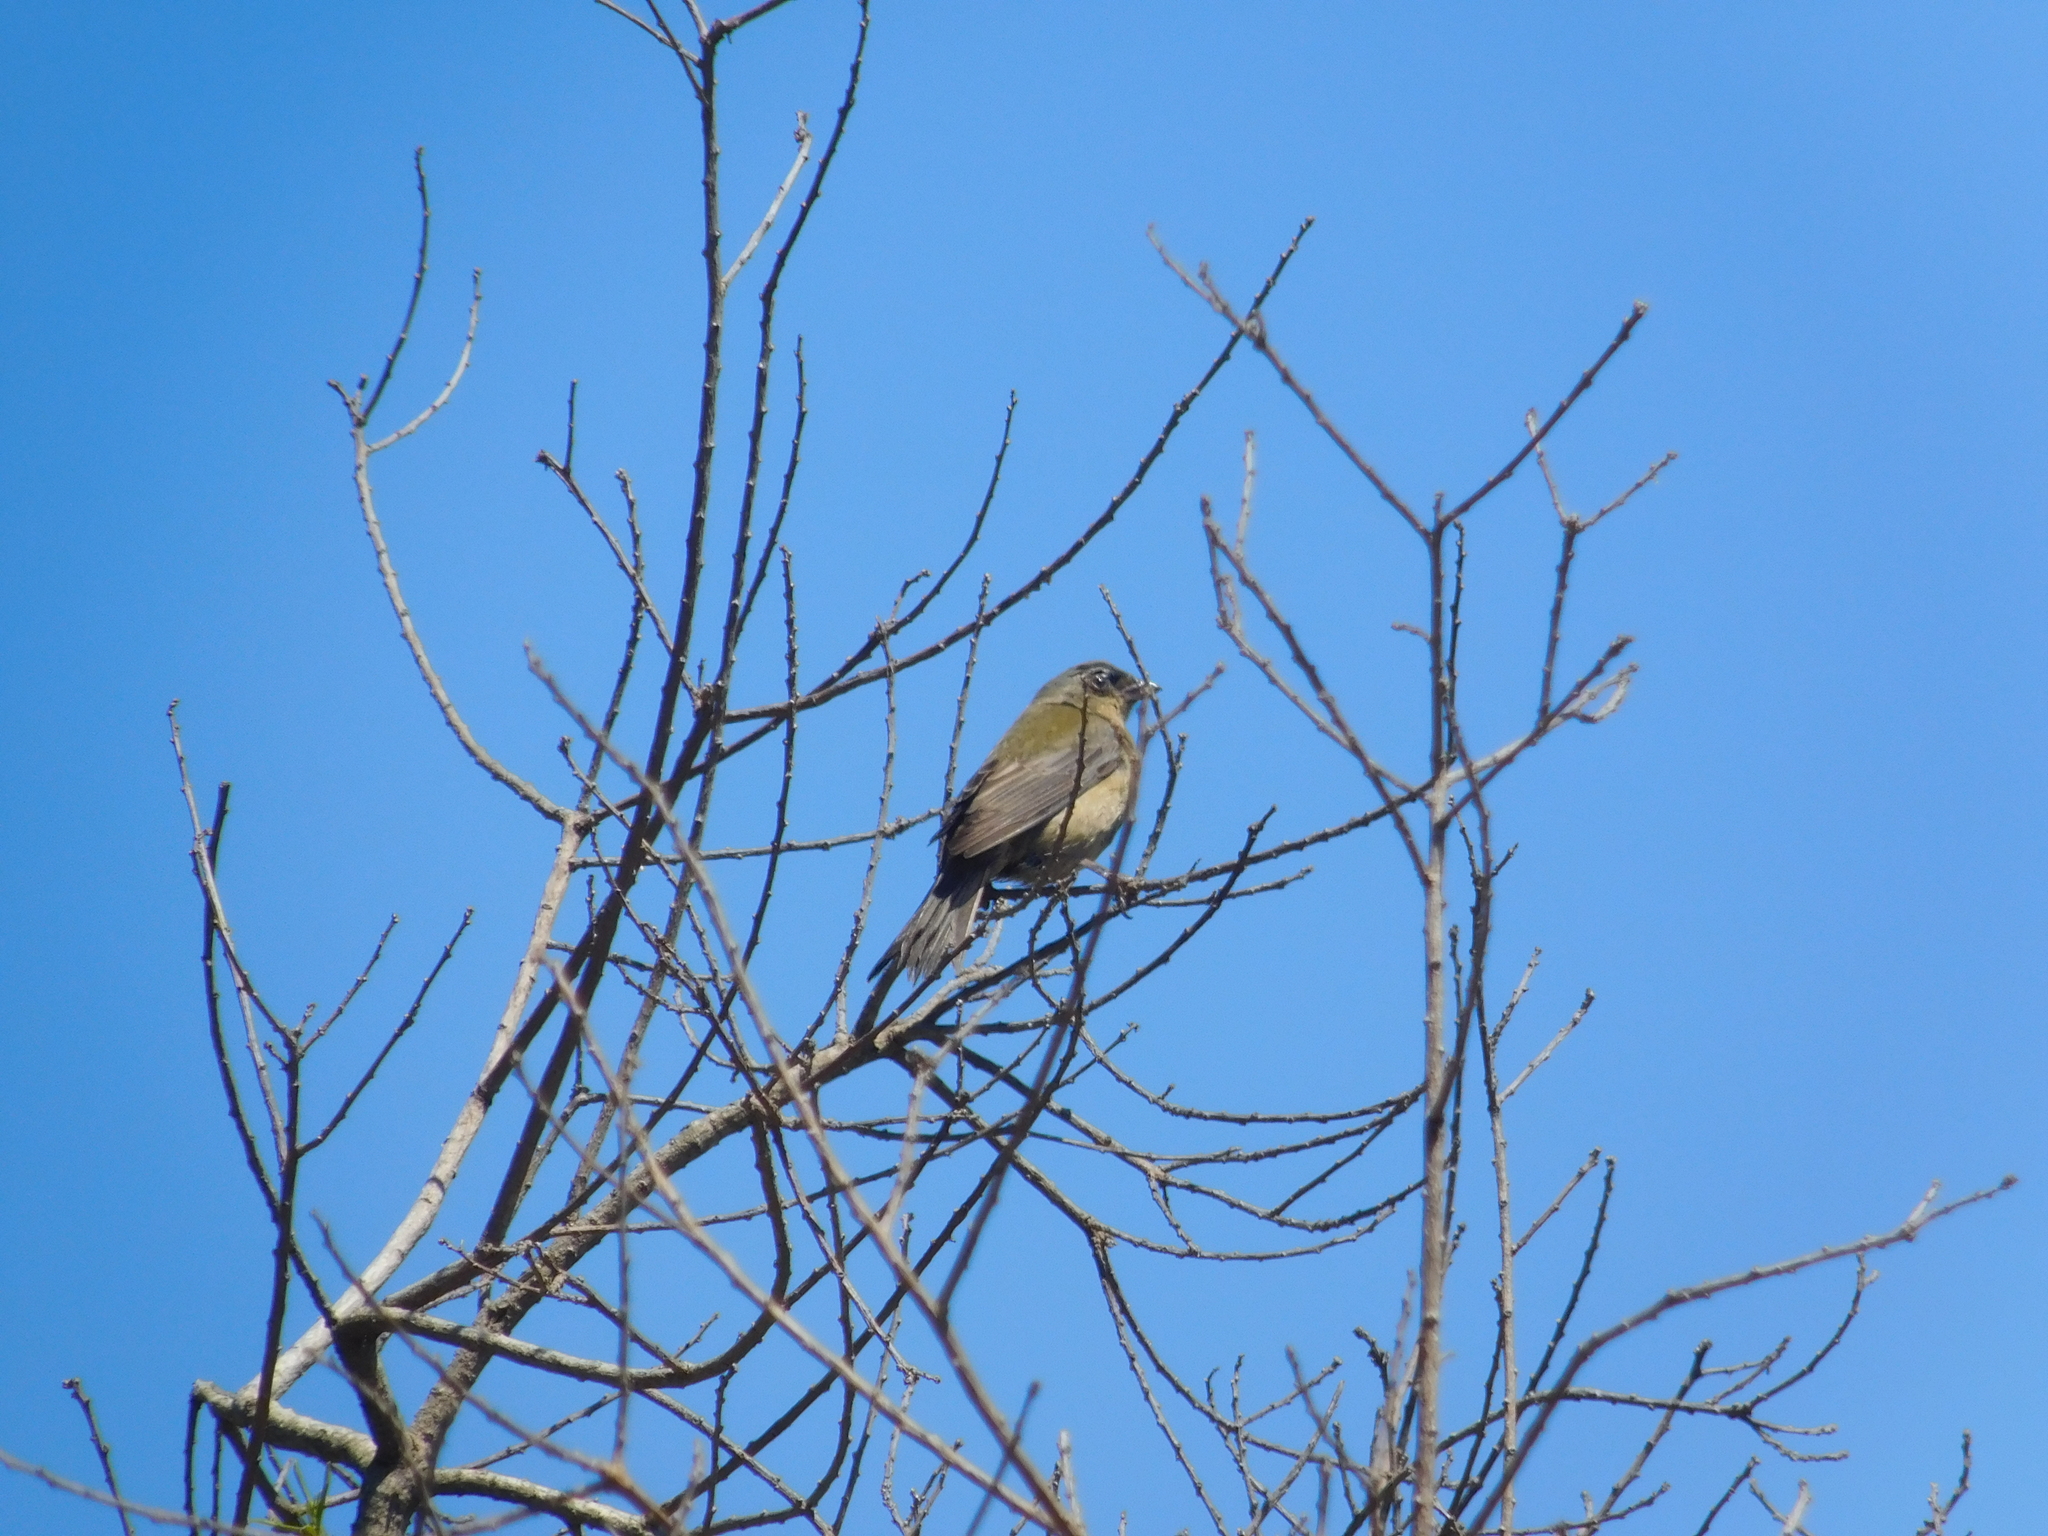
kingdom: Animalia
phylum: Chordata
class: Aves
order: Passeriformes
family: Thraupidae
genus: Rauenia
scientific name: Rauenia bonariensis
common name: Blue-and-yellow tanager
